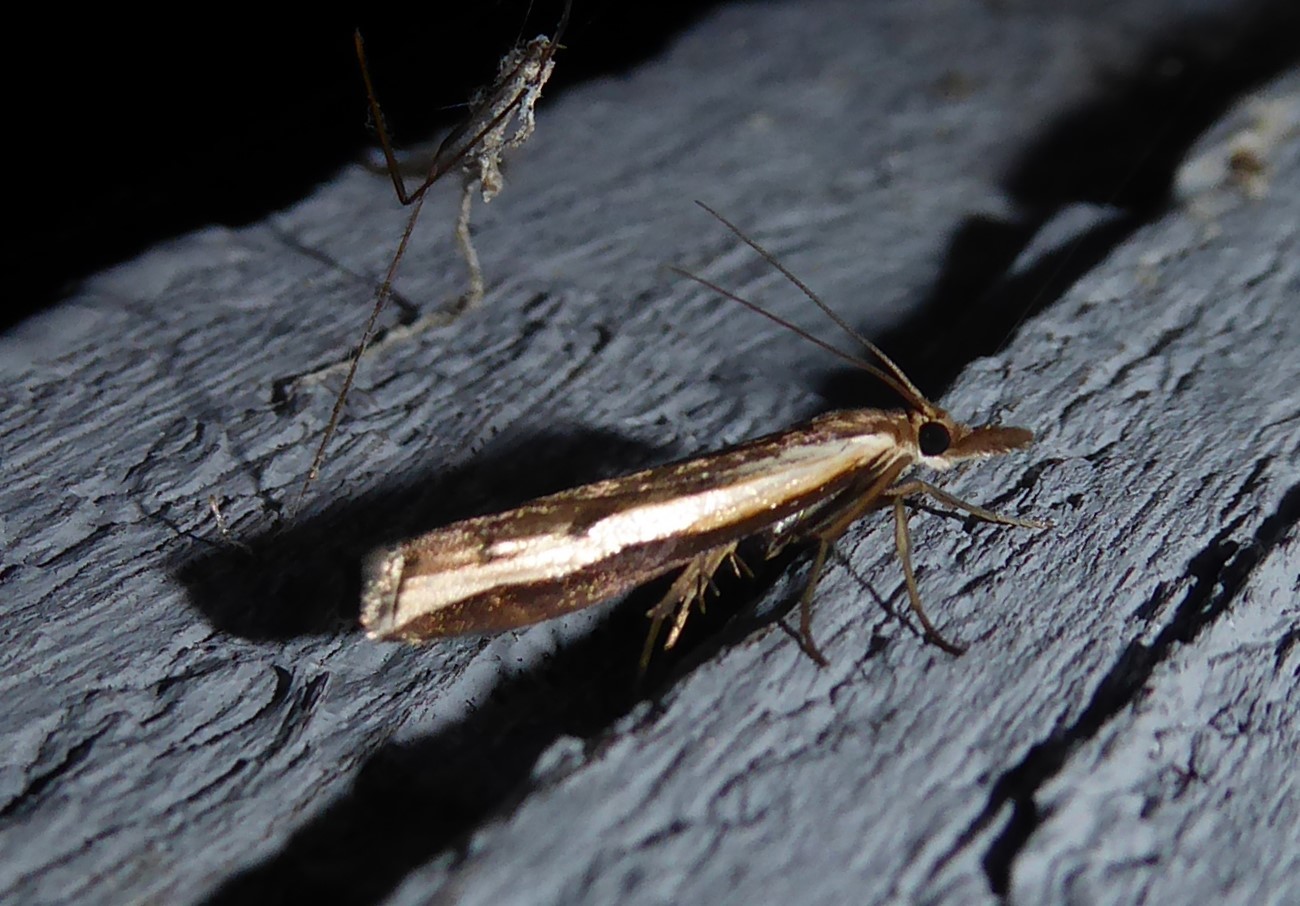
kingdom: Animalia
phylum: Arthropoda
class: Insecta
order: Lepidoptera
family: Crambidae
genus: Orocrambus
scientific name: Orocrambus flexuosellus
